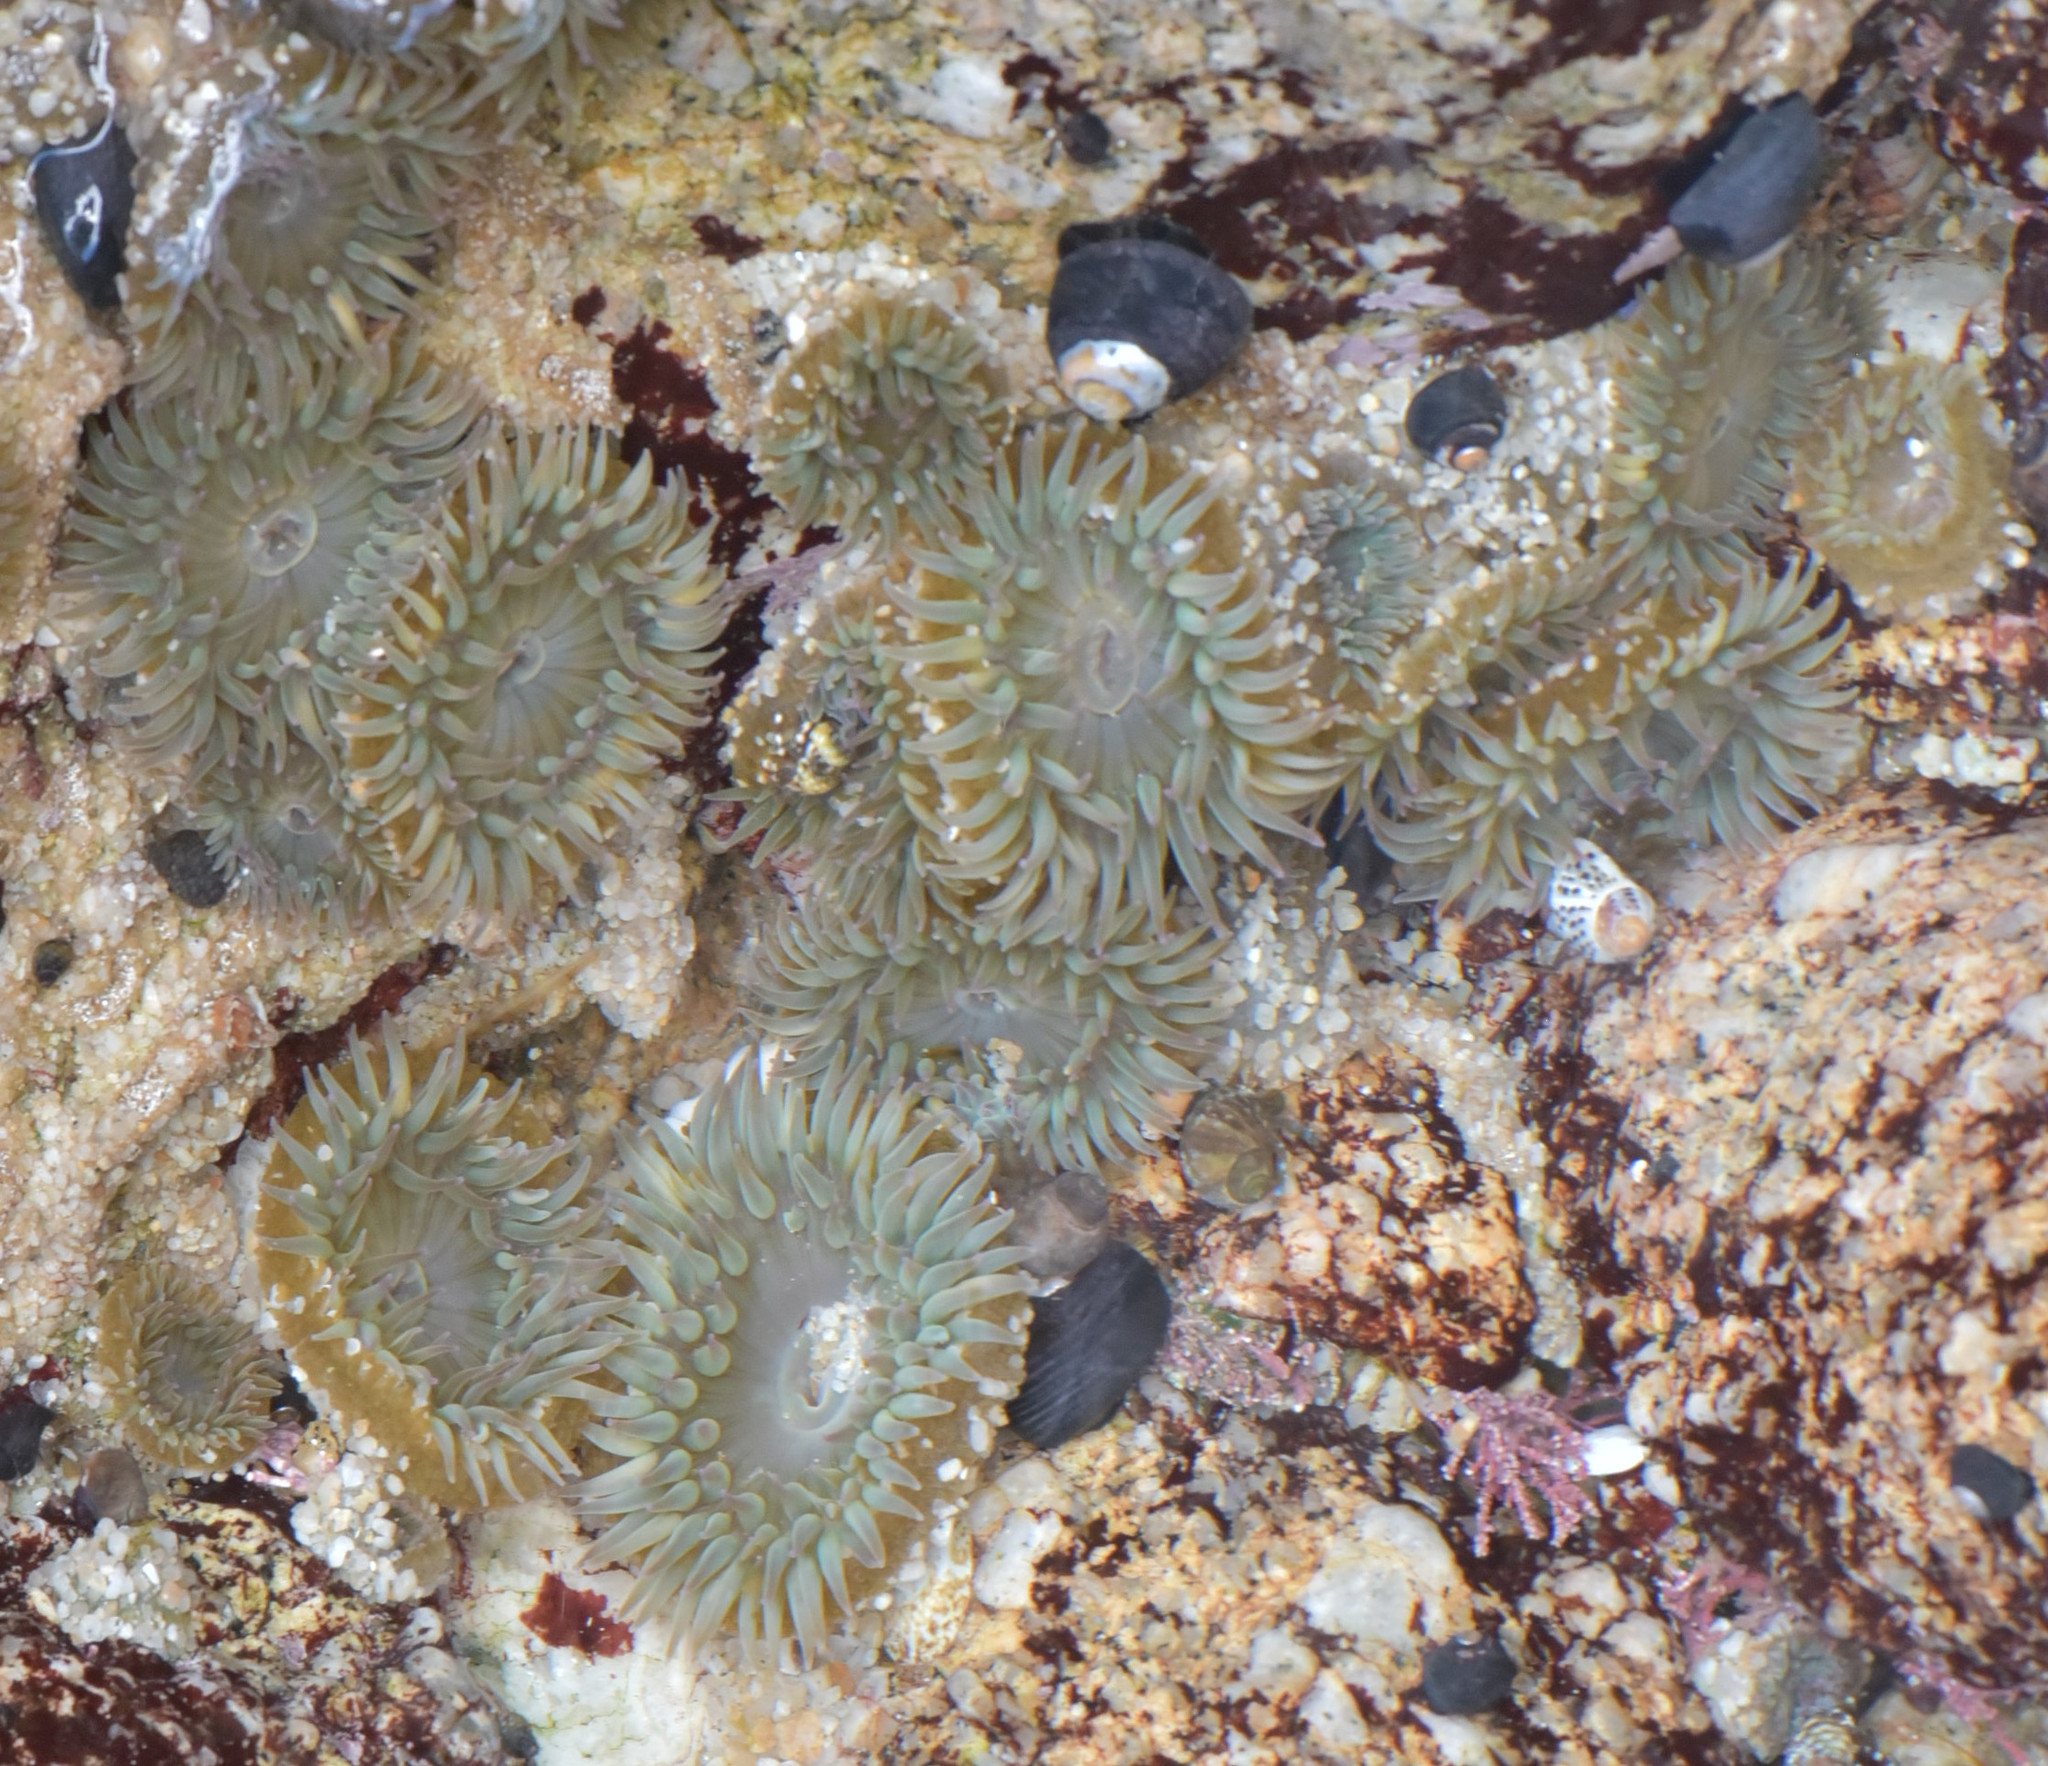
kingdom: Animalia
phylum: Cnidaria
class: Anthozoa
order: Actiniaria
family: Actiniidae
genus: Anthopleura
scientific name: Anthopleura elegantissima
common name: Clonal anemone
